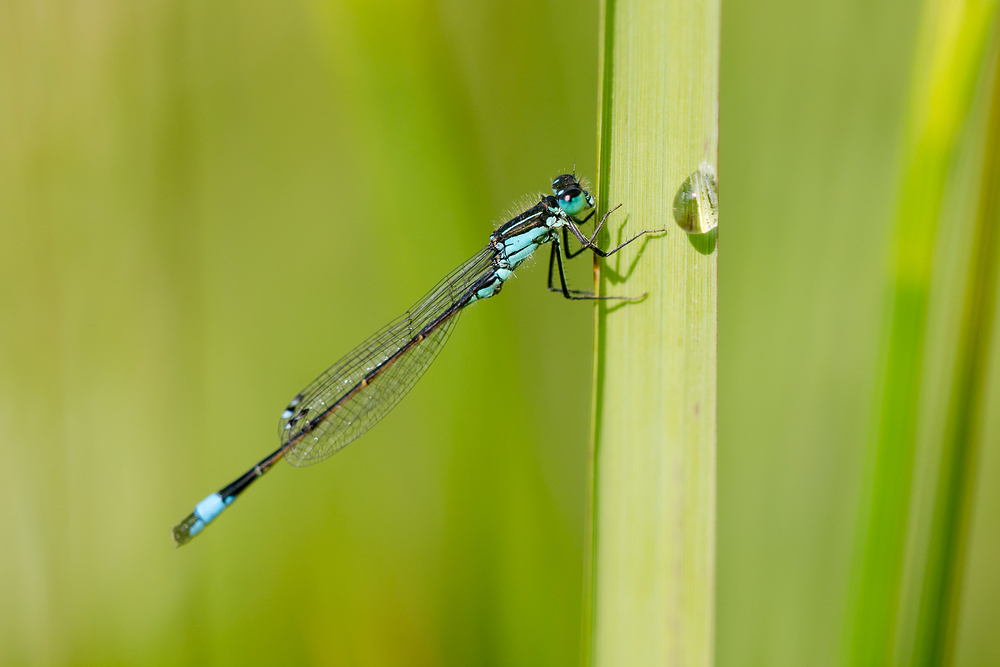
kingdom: Animalia
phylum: Arthropoda
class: Insecta
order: Odonata
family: Coenagrionidae
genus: Ischnura
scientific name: Ischnura elegans
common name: Blue-tailed damselfly
